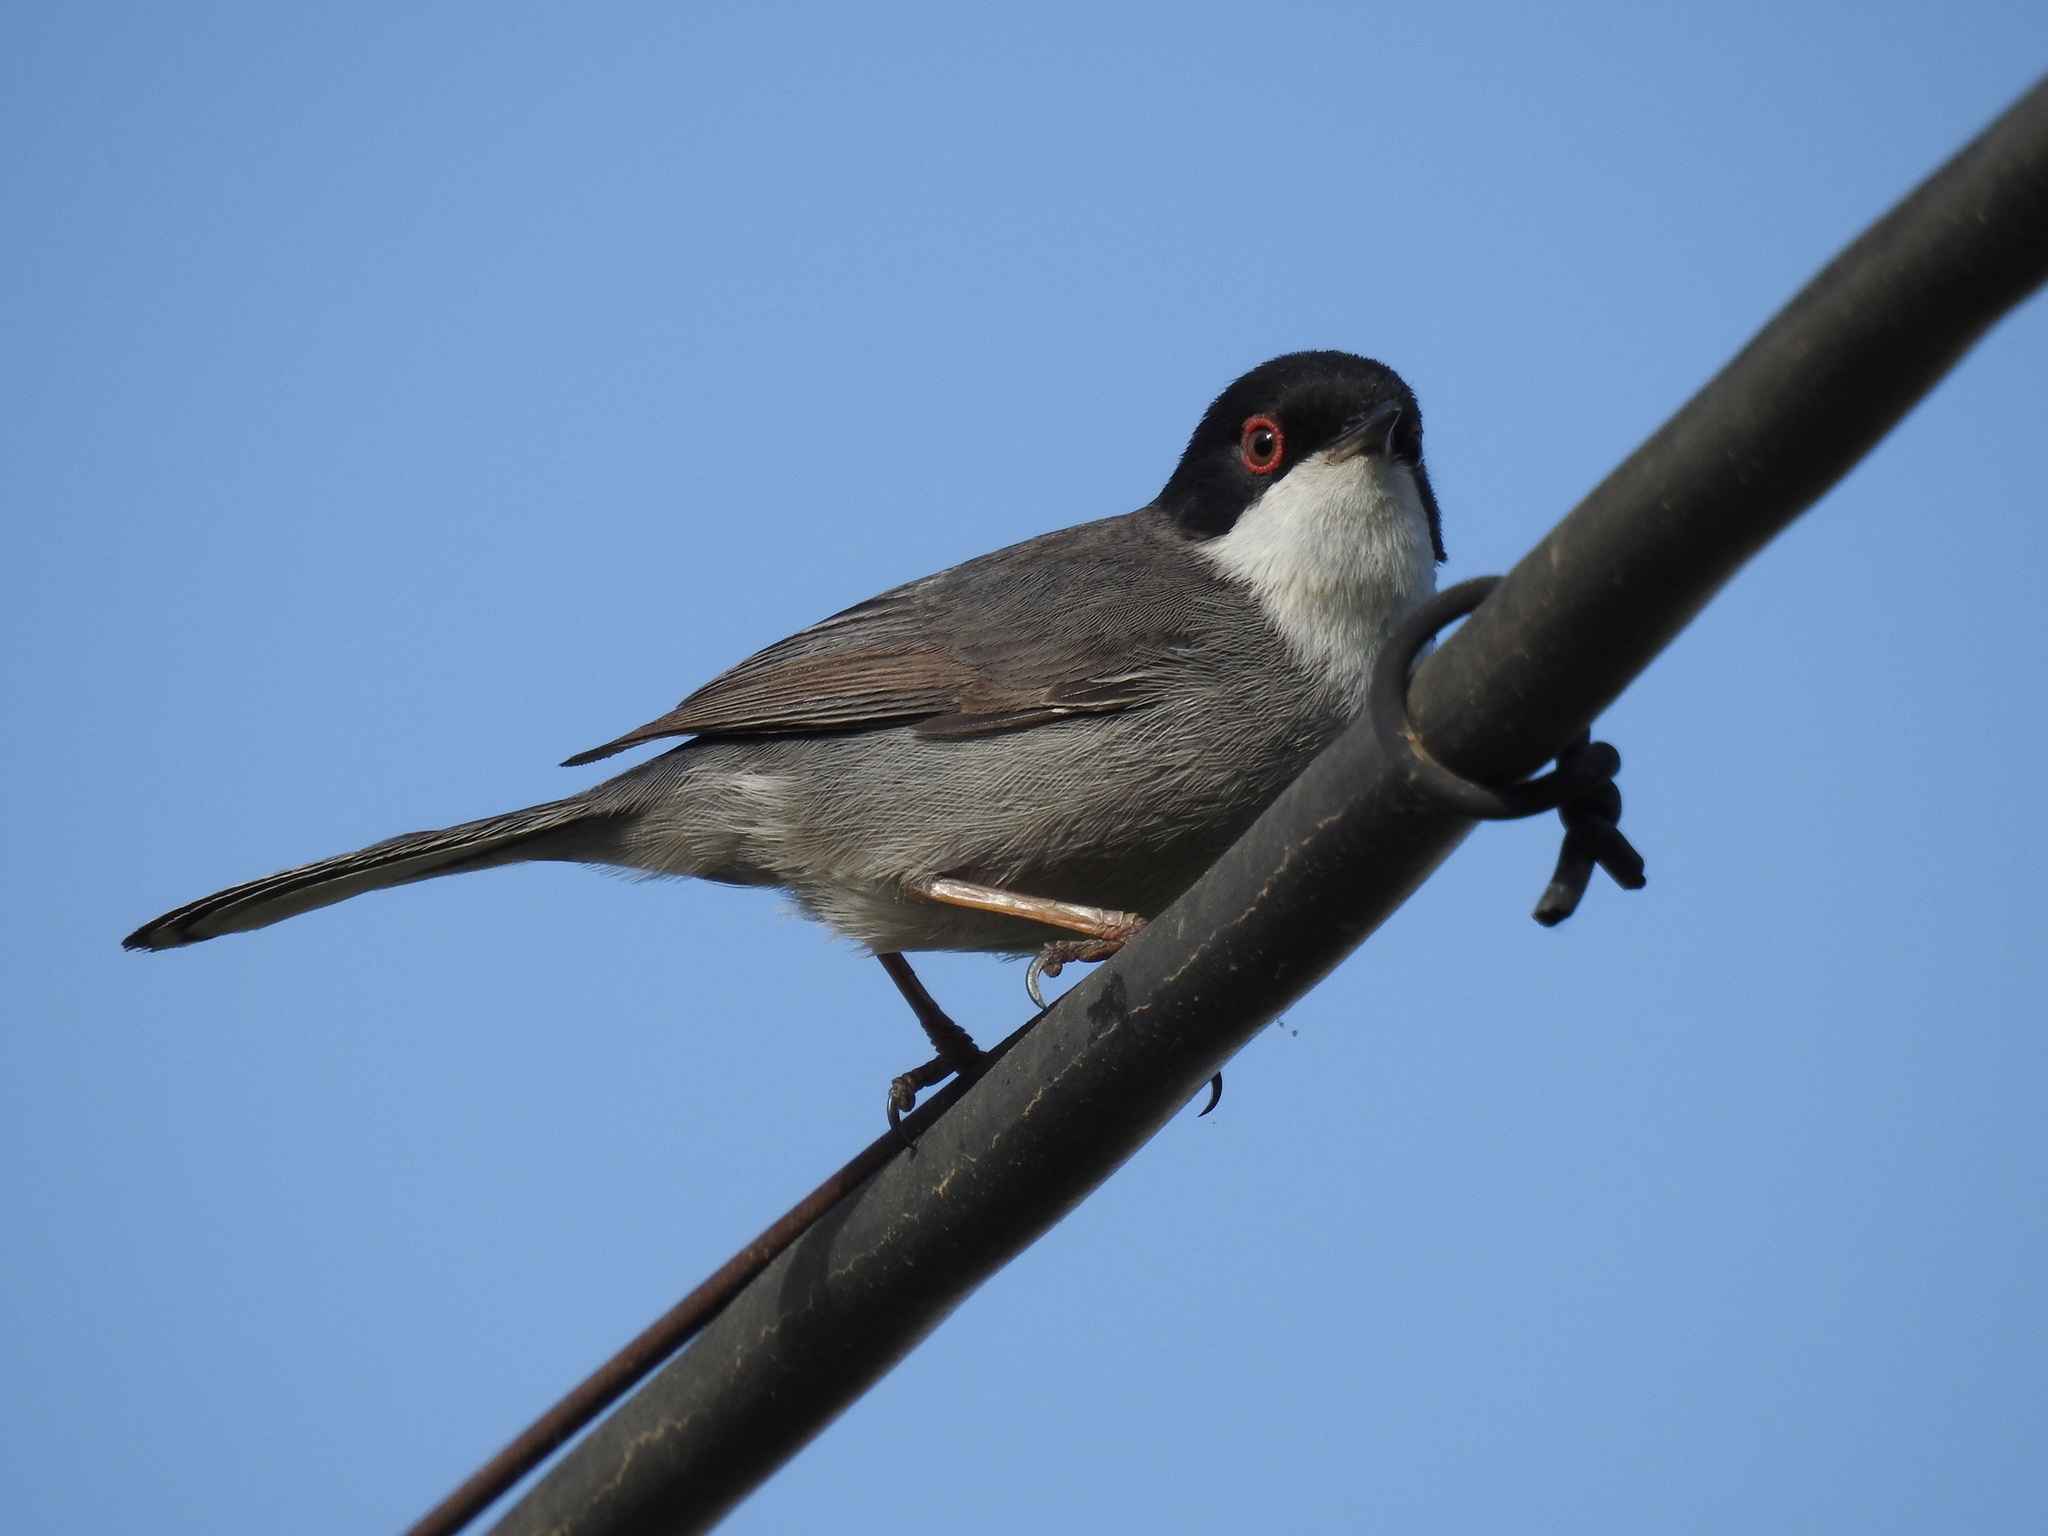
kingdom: Animalia
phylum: Chordata
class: Aves
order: Passeriformes
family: Sylviidae
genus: Curruca
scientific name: Curruca melanocephala
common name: Sardinian warbler
